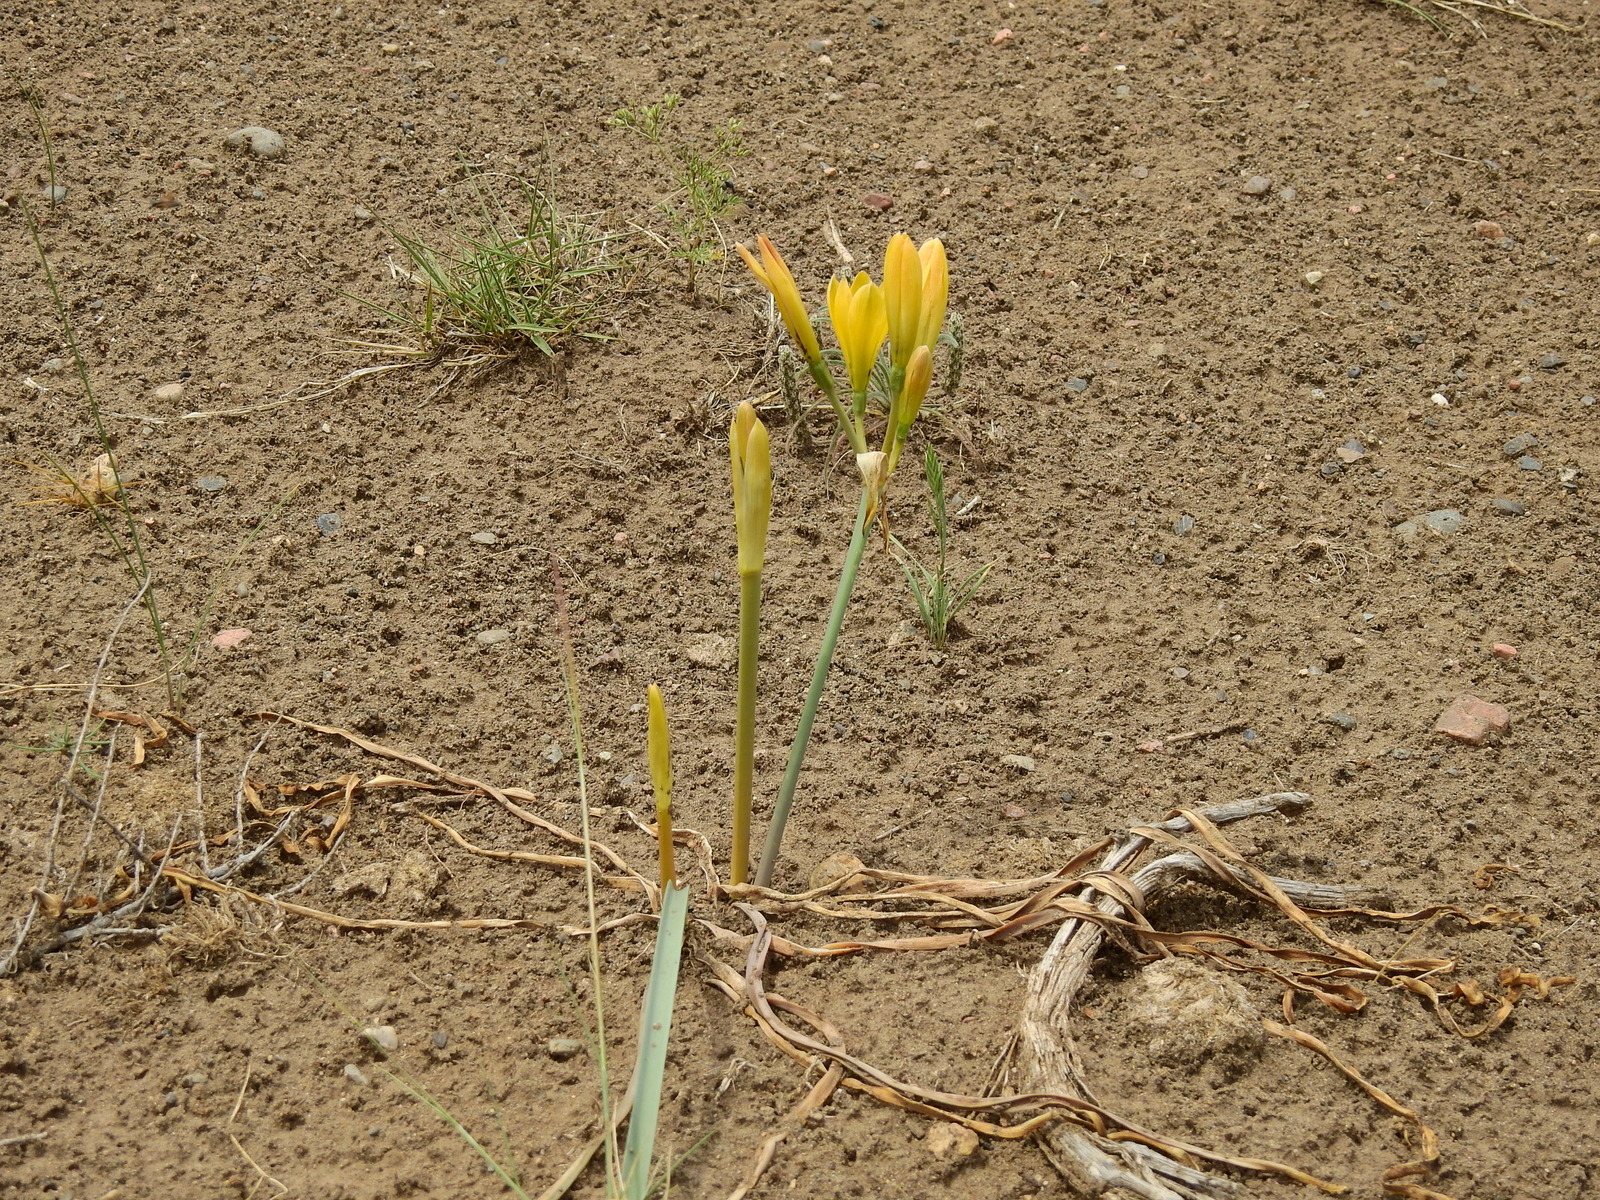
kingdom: Plantae
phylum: Tracheophyta
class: Liliopsida
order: Asparagales
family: Amaryllidaceae
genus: Zephyranthes
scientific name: Zephyranthes gilliesiana
